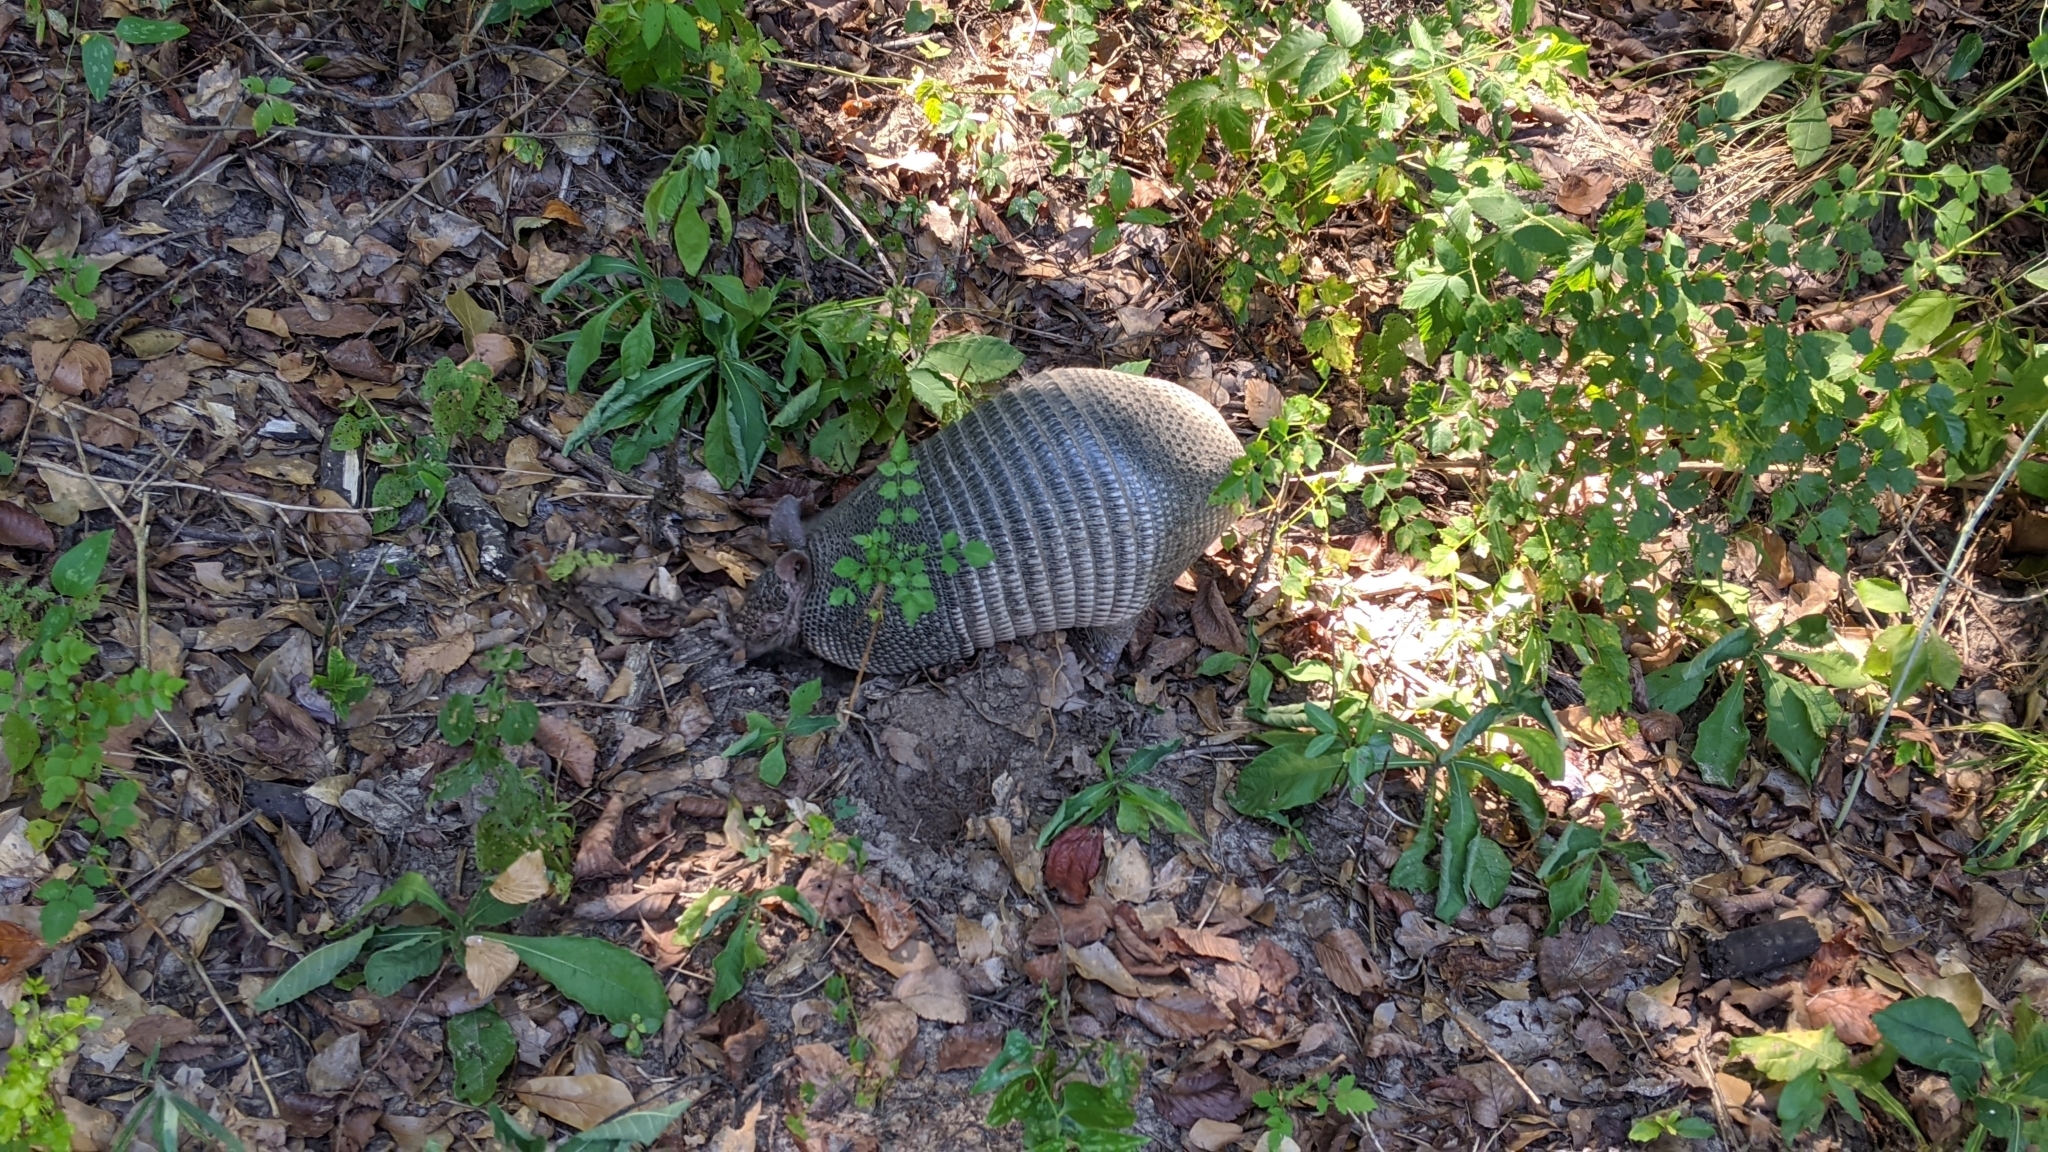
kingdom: Animalia
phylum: Chordata
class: Mammalia
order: Cingulata
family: Dasypodidae
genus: Dasypus
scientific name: Dasypus novemcinctus
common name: Nine-banded armadillo
